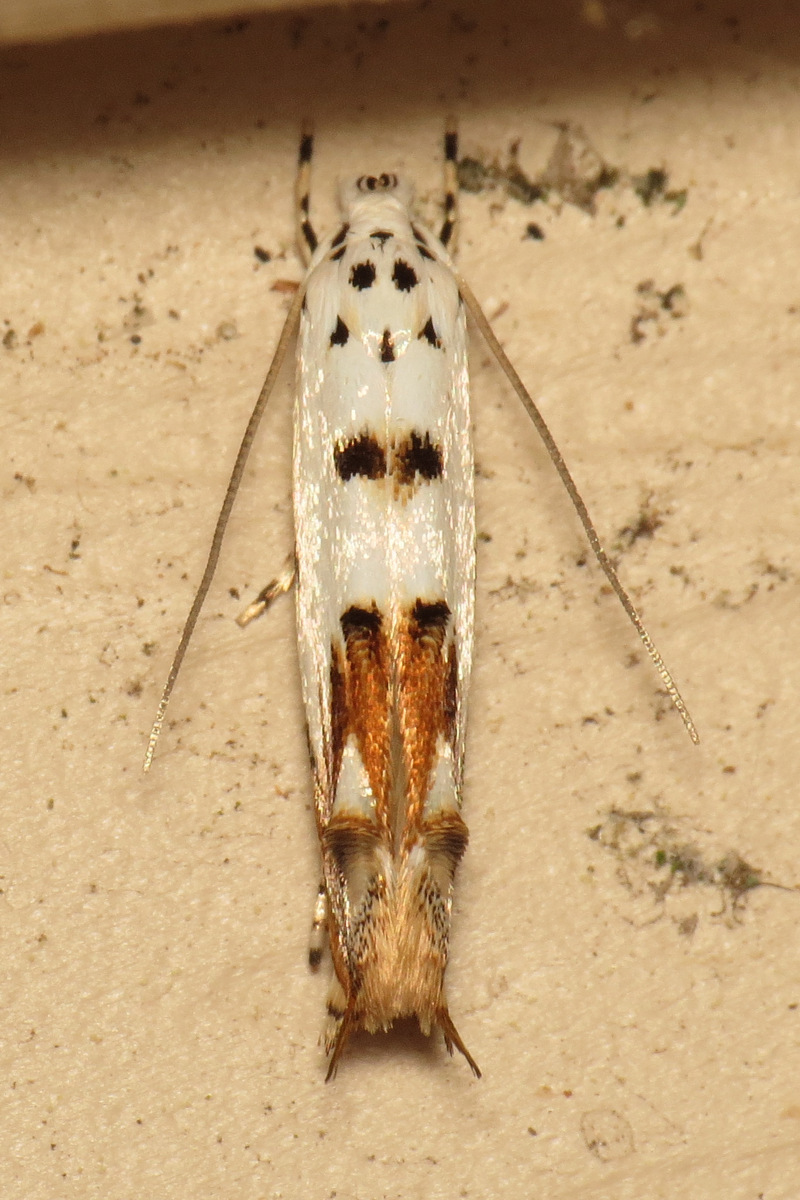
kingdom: Animalia
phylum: Arthropoda
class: Insecta
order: Lepidoptera
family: Momphidae
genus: Mompha
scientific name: Mompha eloisella
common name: Red-streaked mompha moth
